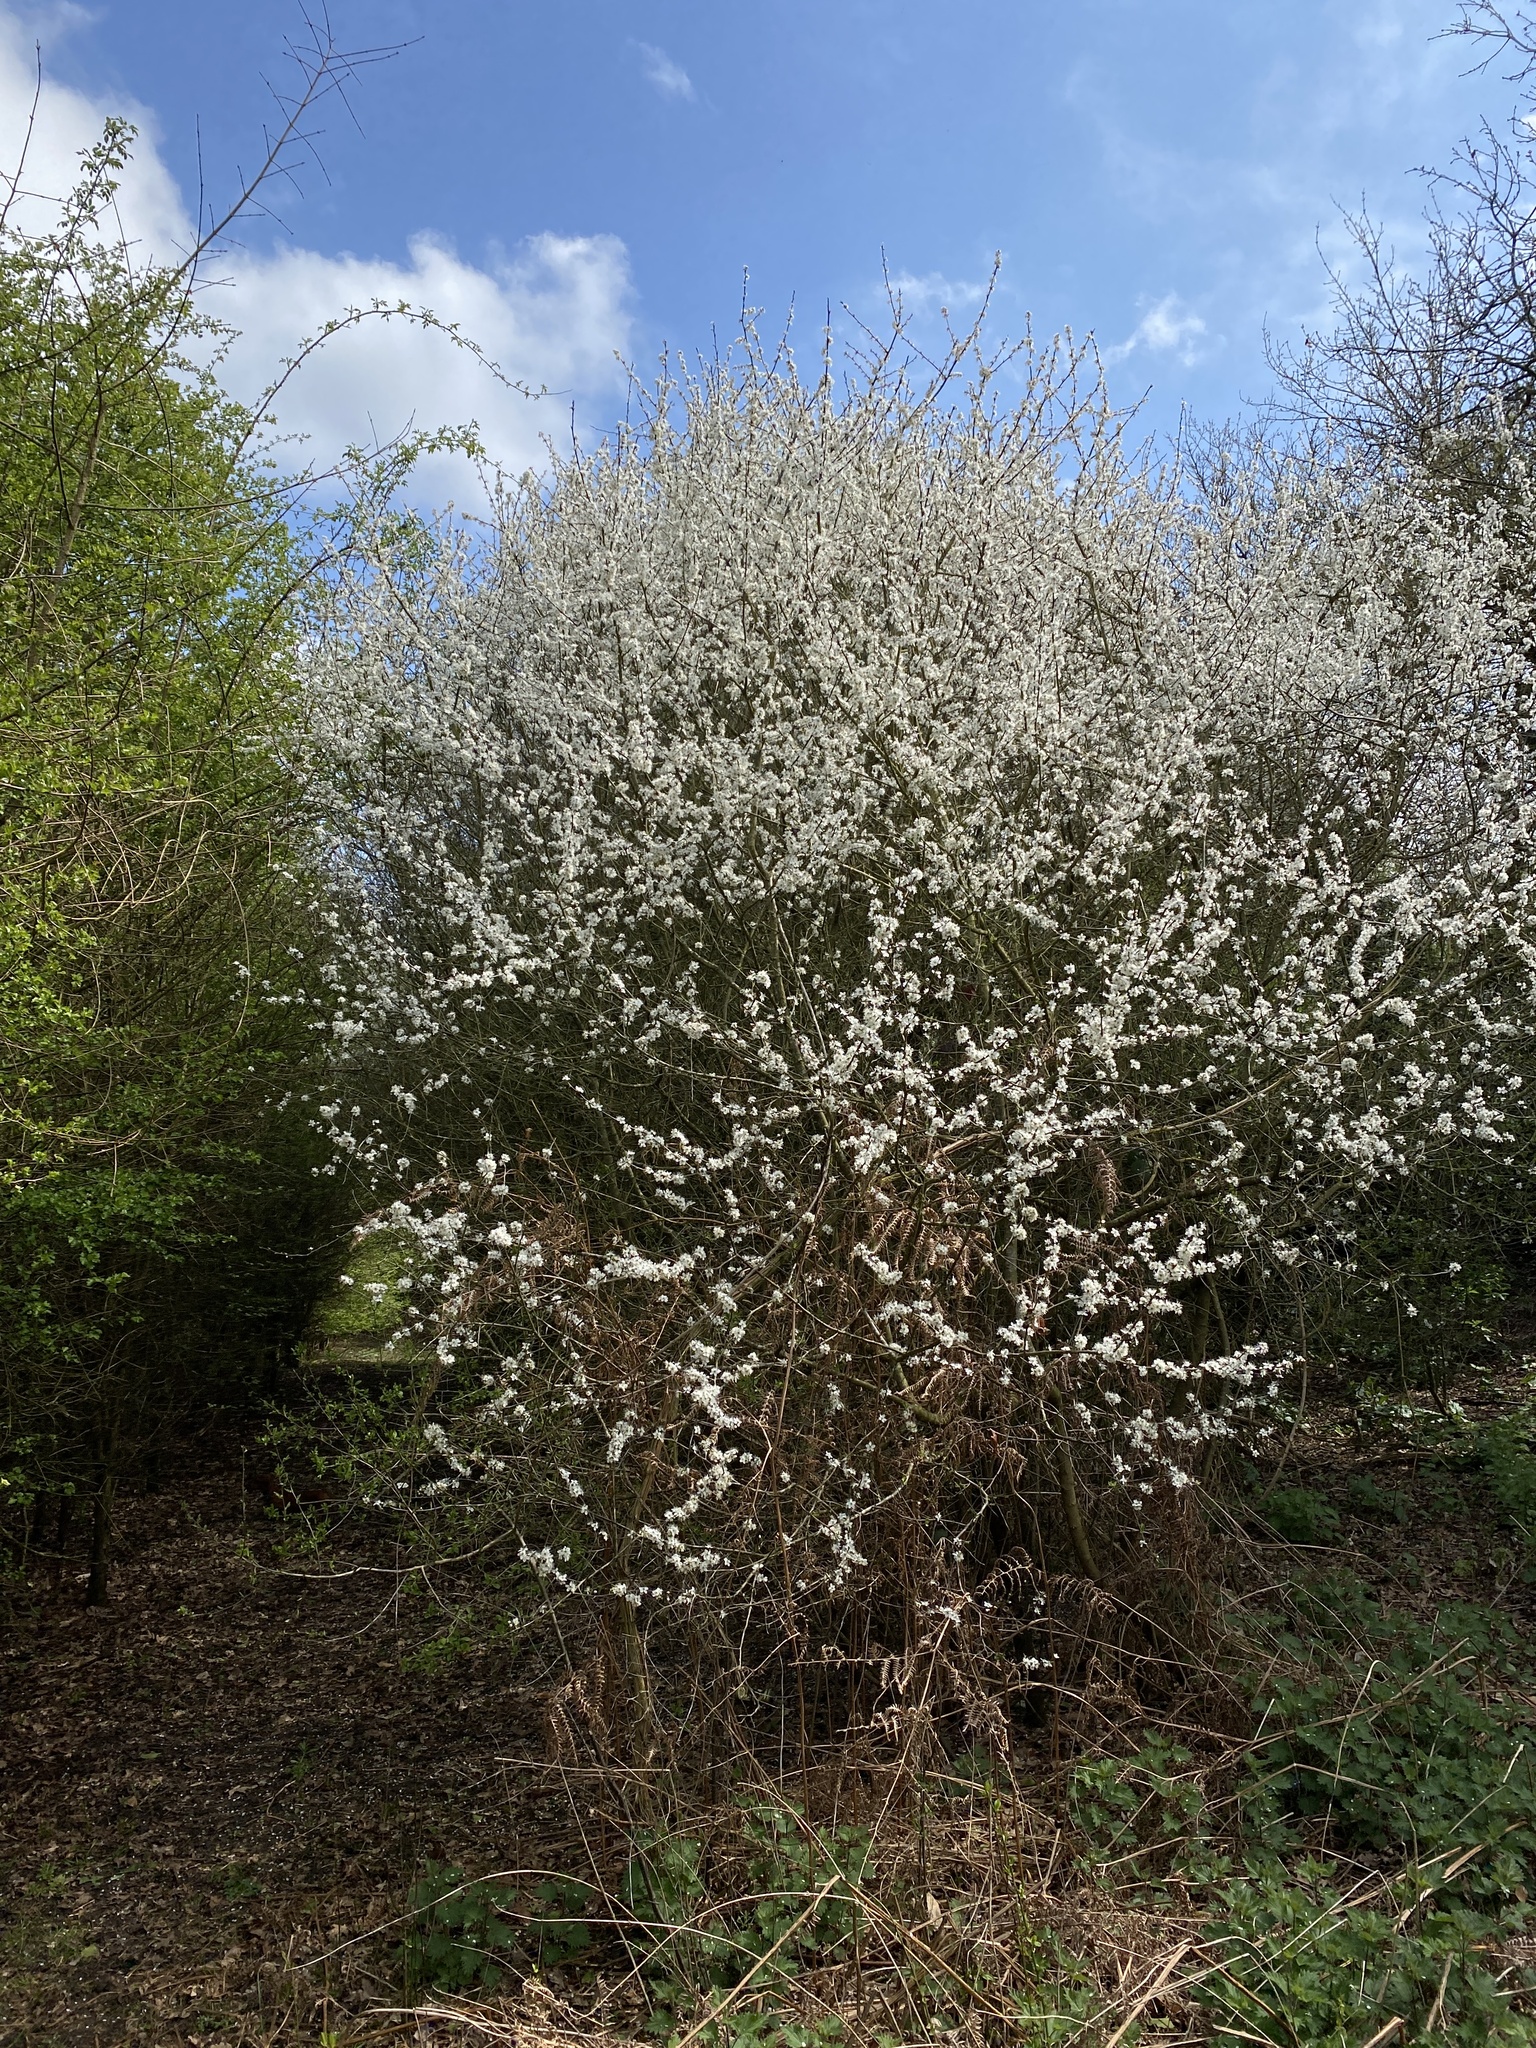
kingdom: Plantae
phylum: Tracheophyta
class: Magnoliopsida
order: Rosales
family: Rosaceae
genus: Prunus
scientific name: Prunus spinosa
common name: Blackthorn
